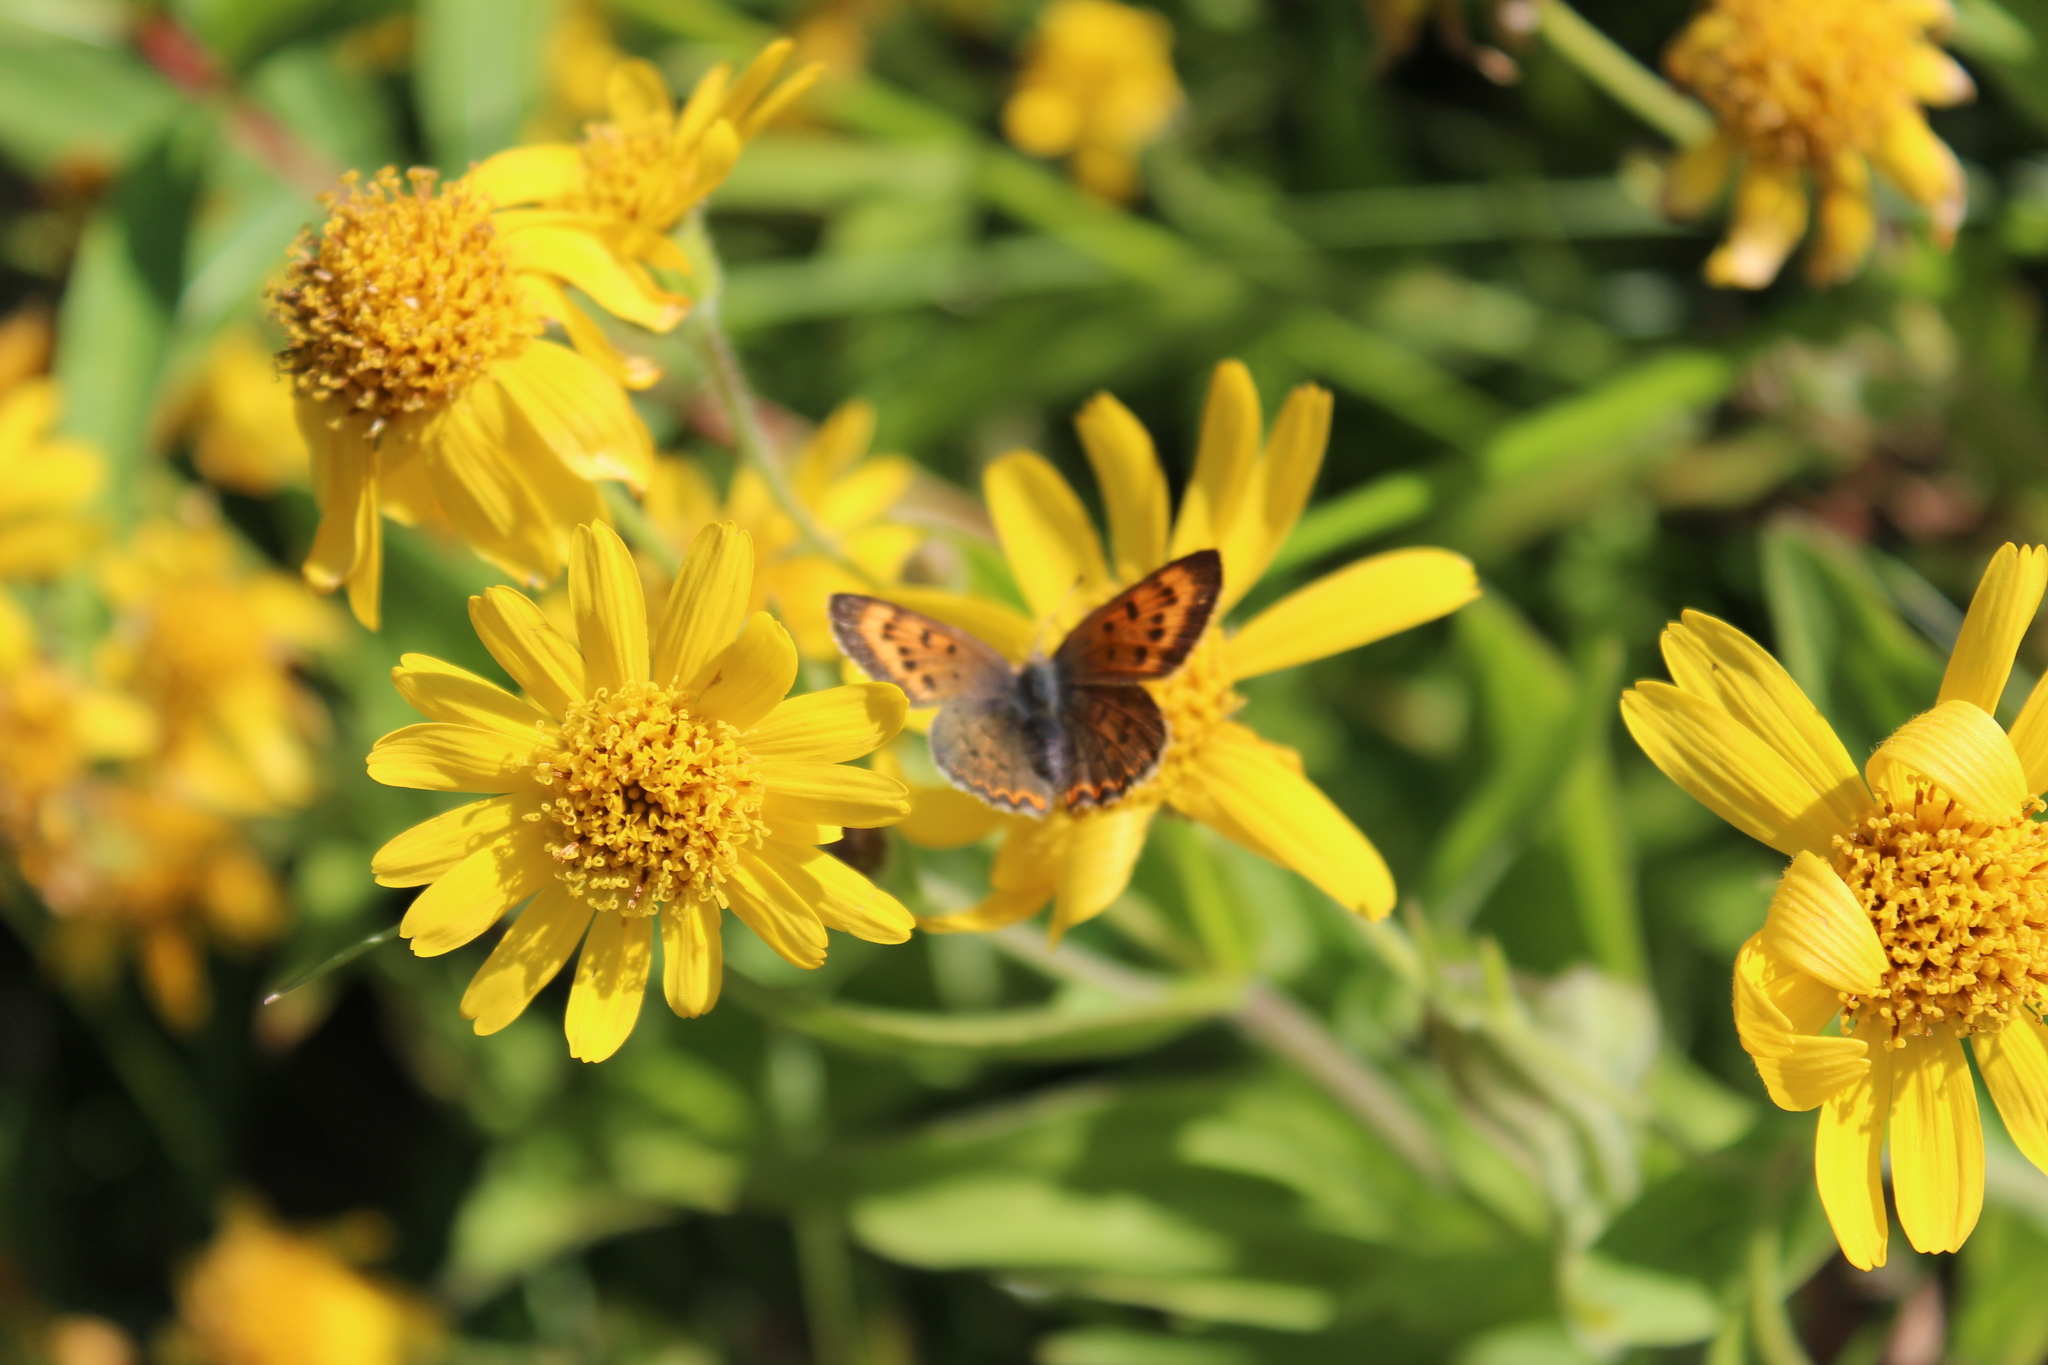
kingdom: Plantae
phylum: Tracheophyta
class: Magnoliopsida
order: Asterales
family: Asteraceae
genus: Arnica
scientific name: Arnica chamissonis
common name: Leafy arnica
